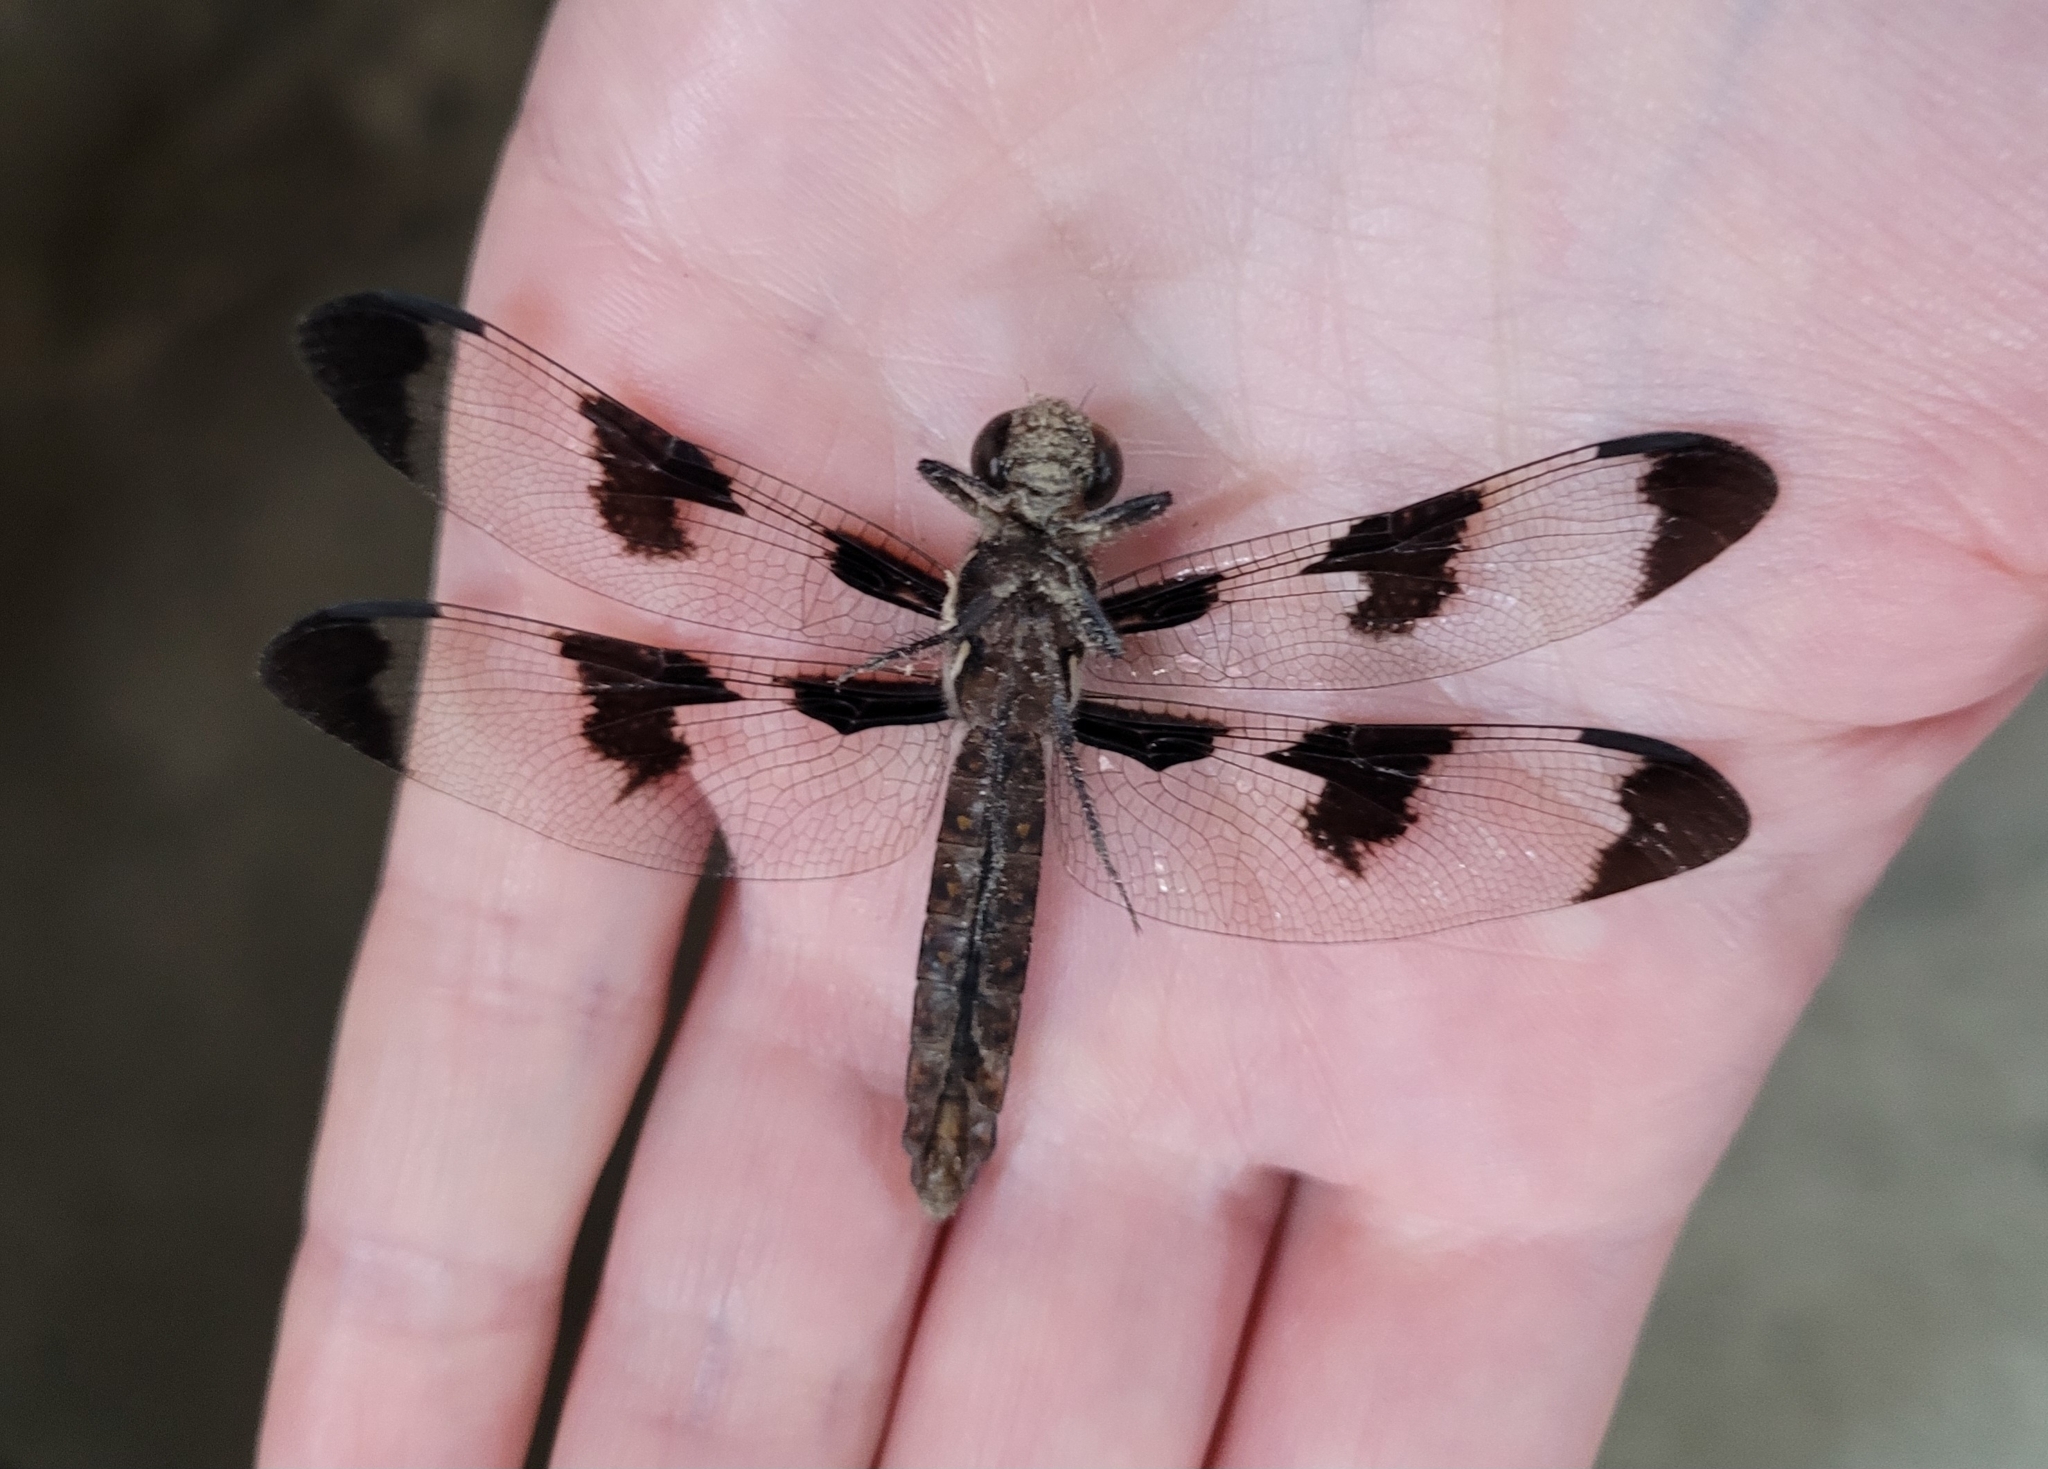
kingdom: Animalia
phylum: Arthropoda
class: Insecta
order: Odonata
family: Libellulidae
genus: Plathemis
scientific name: Plathemis lydia
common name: Common whitetail
